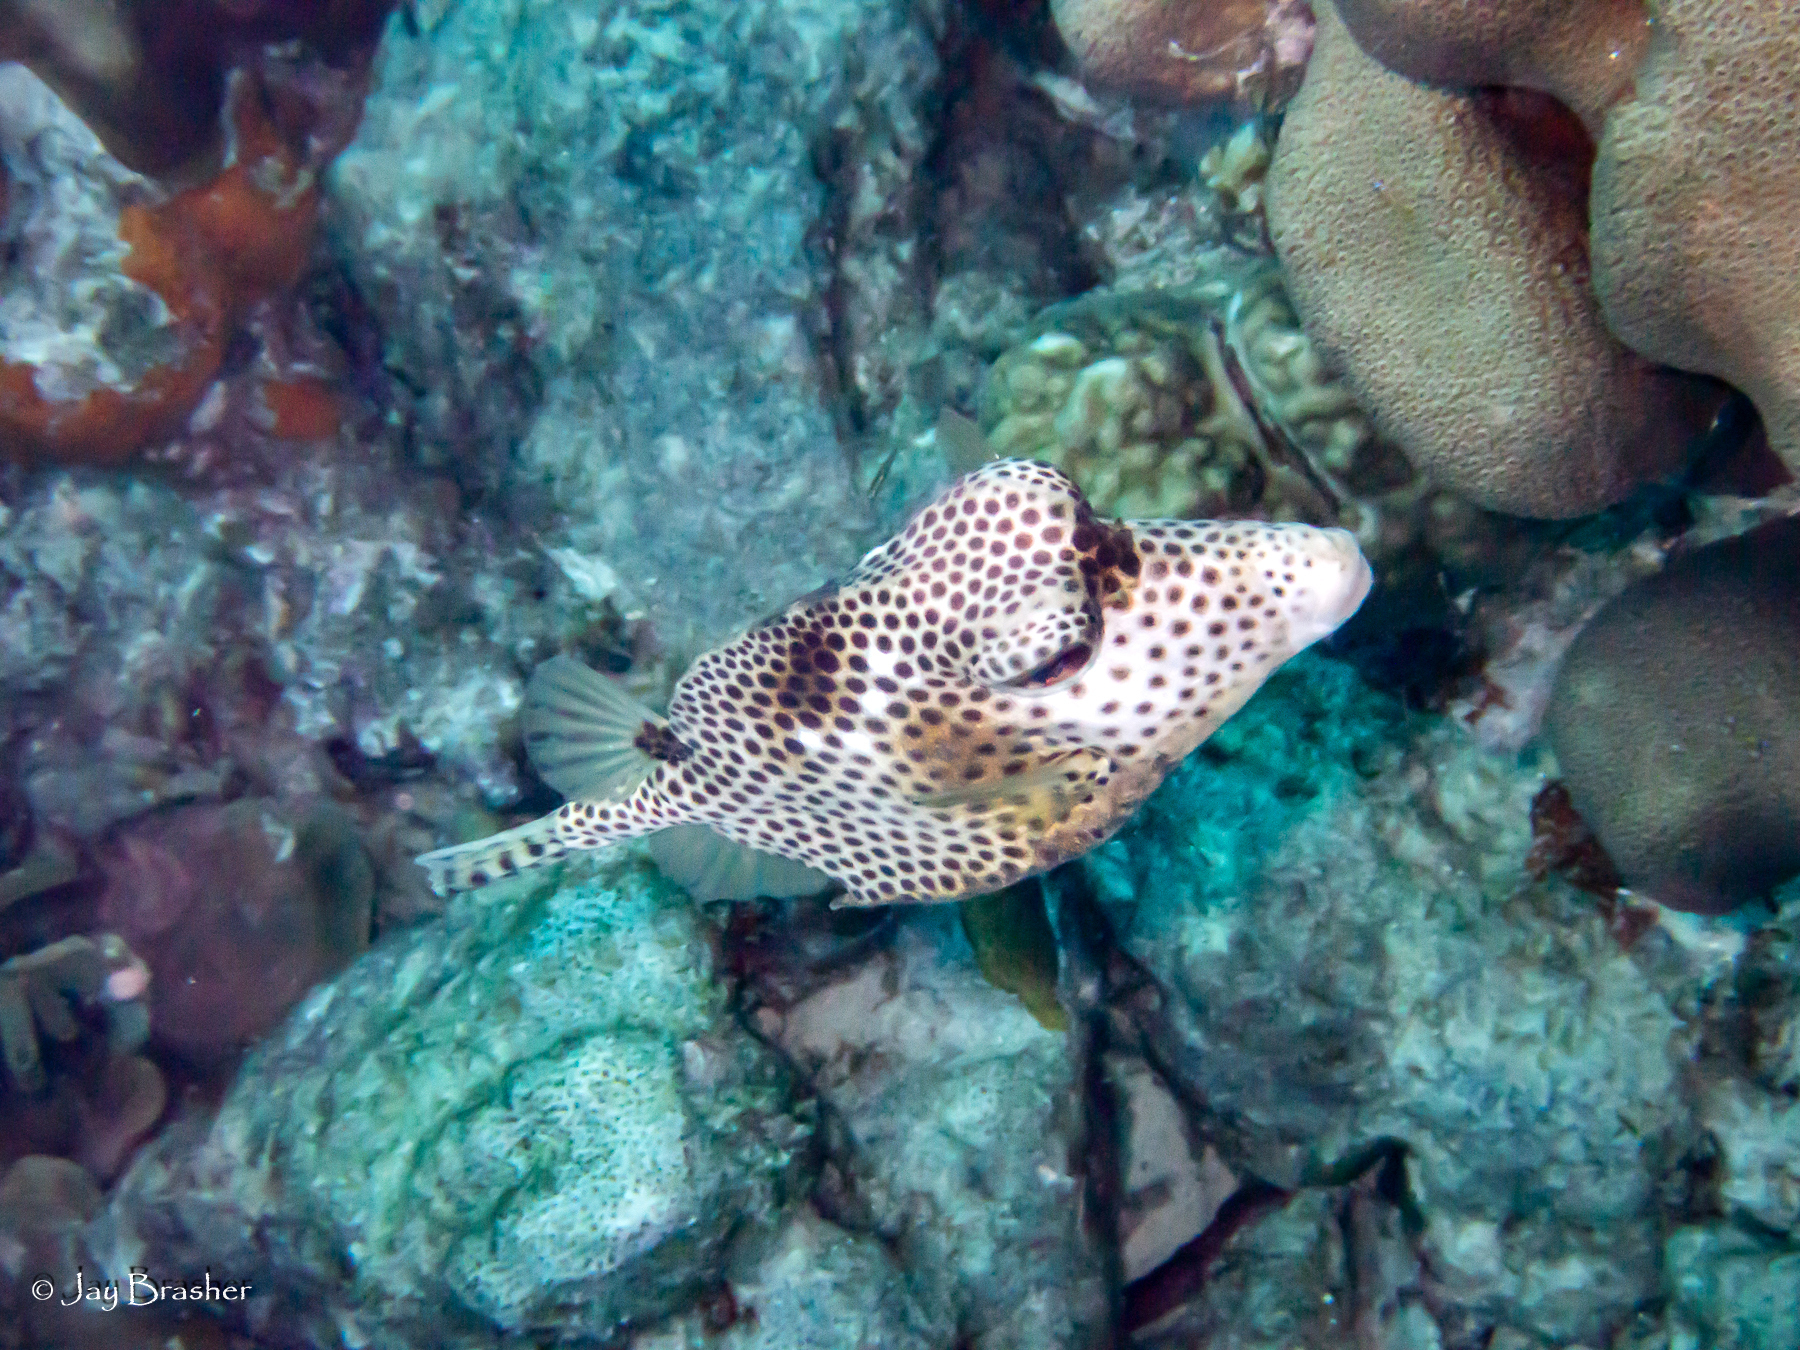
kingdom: Animalia
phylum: Chordata
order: Tetraodontiformes
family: Ostraciidae
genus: Lactophrys
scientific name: Lactophrys bicaudalis
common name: Spotted trunkfish
